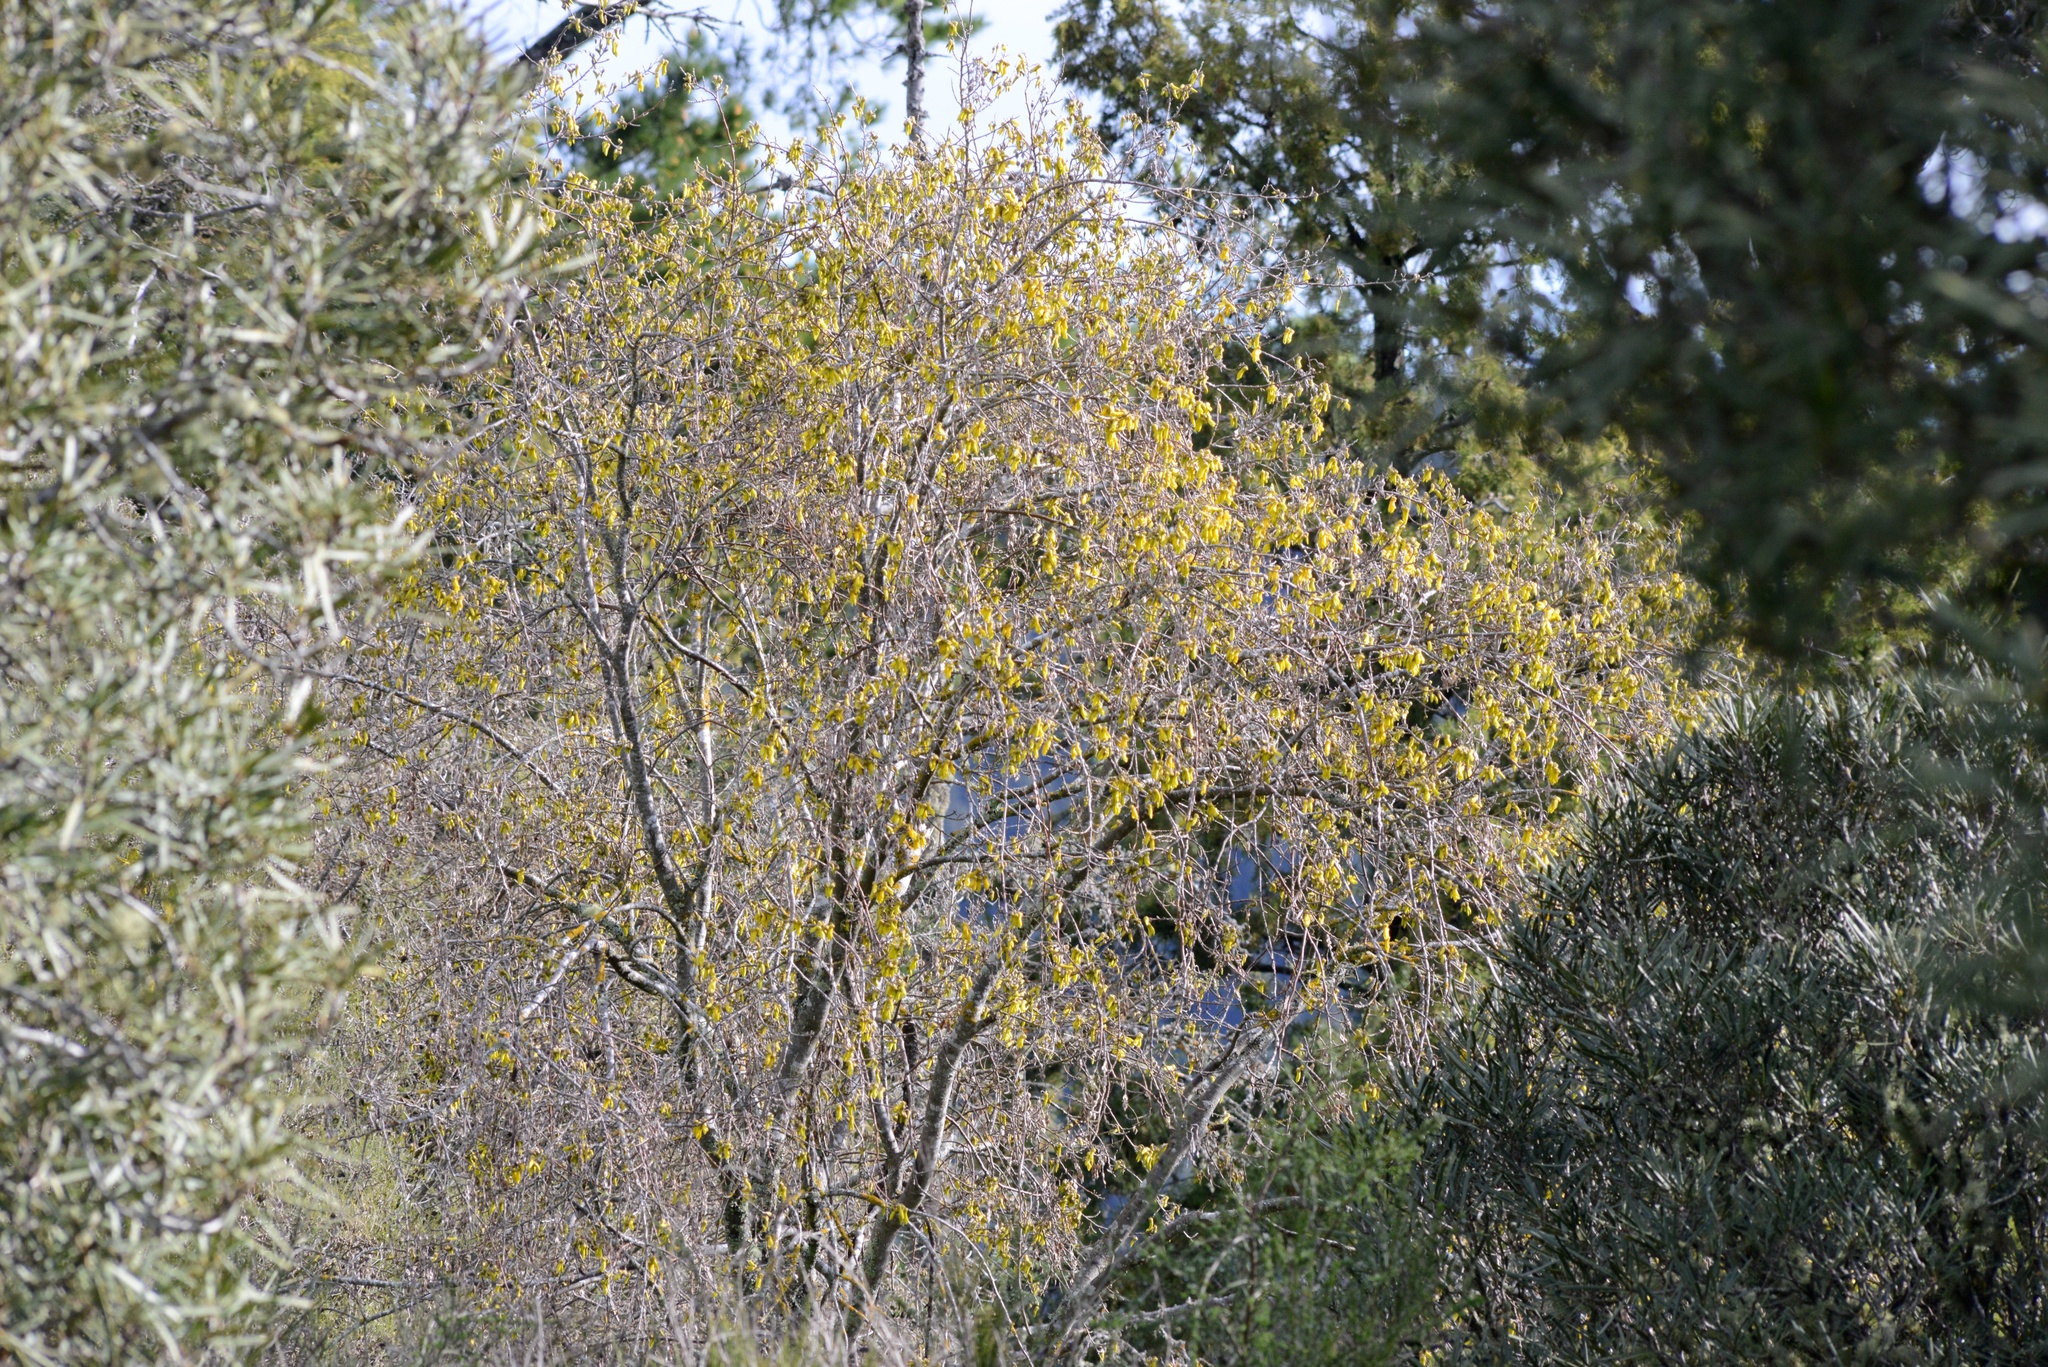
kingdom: Plantae
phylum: Tracheophyta
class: Magnoliopsida
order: Fabales
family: Fabaceae
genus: Sophora
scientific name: Sophora microphylla
